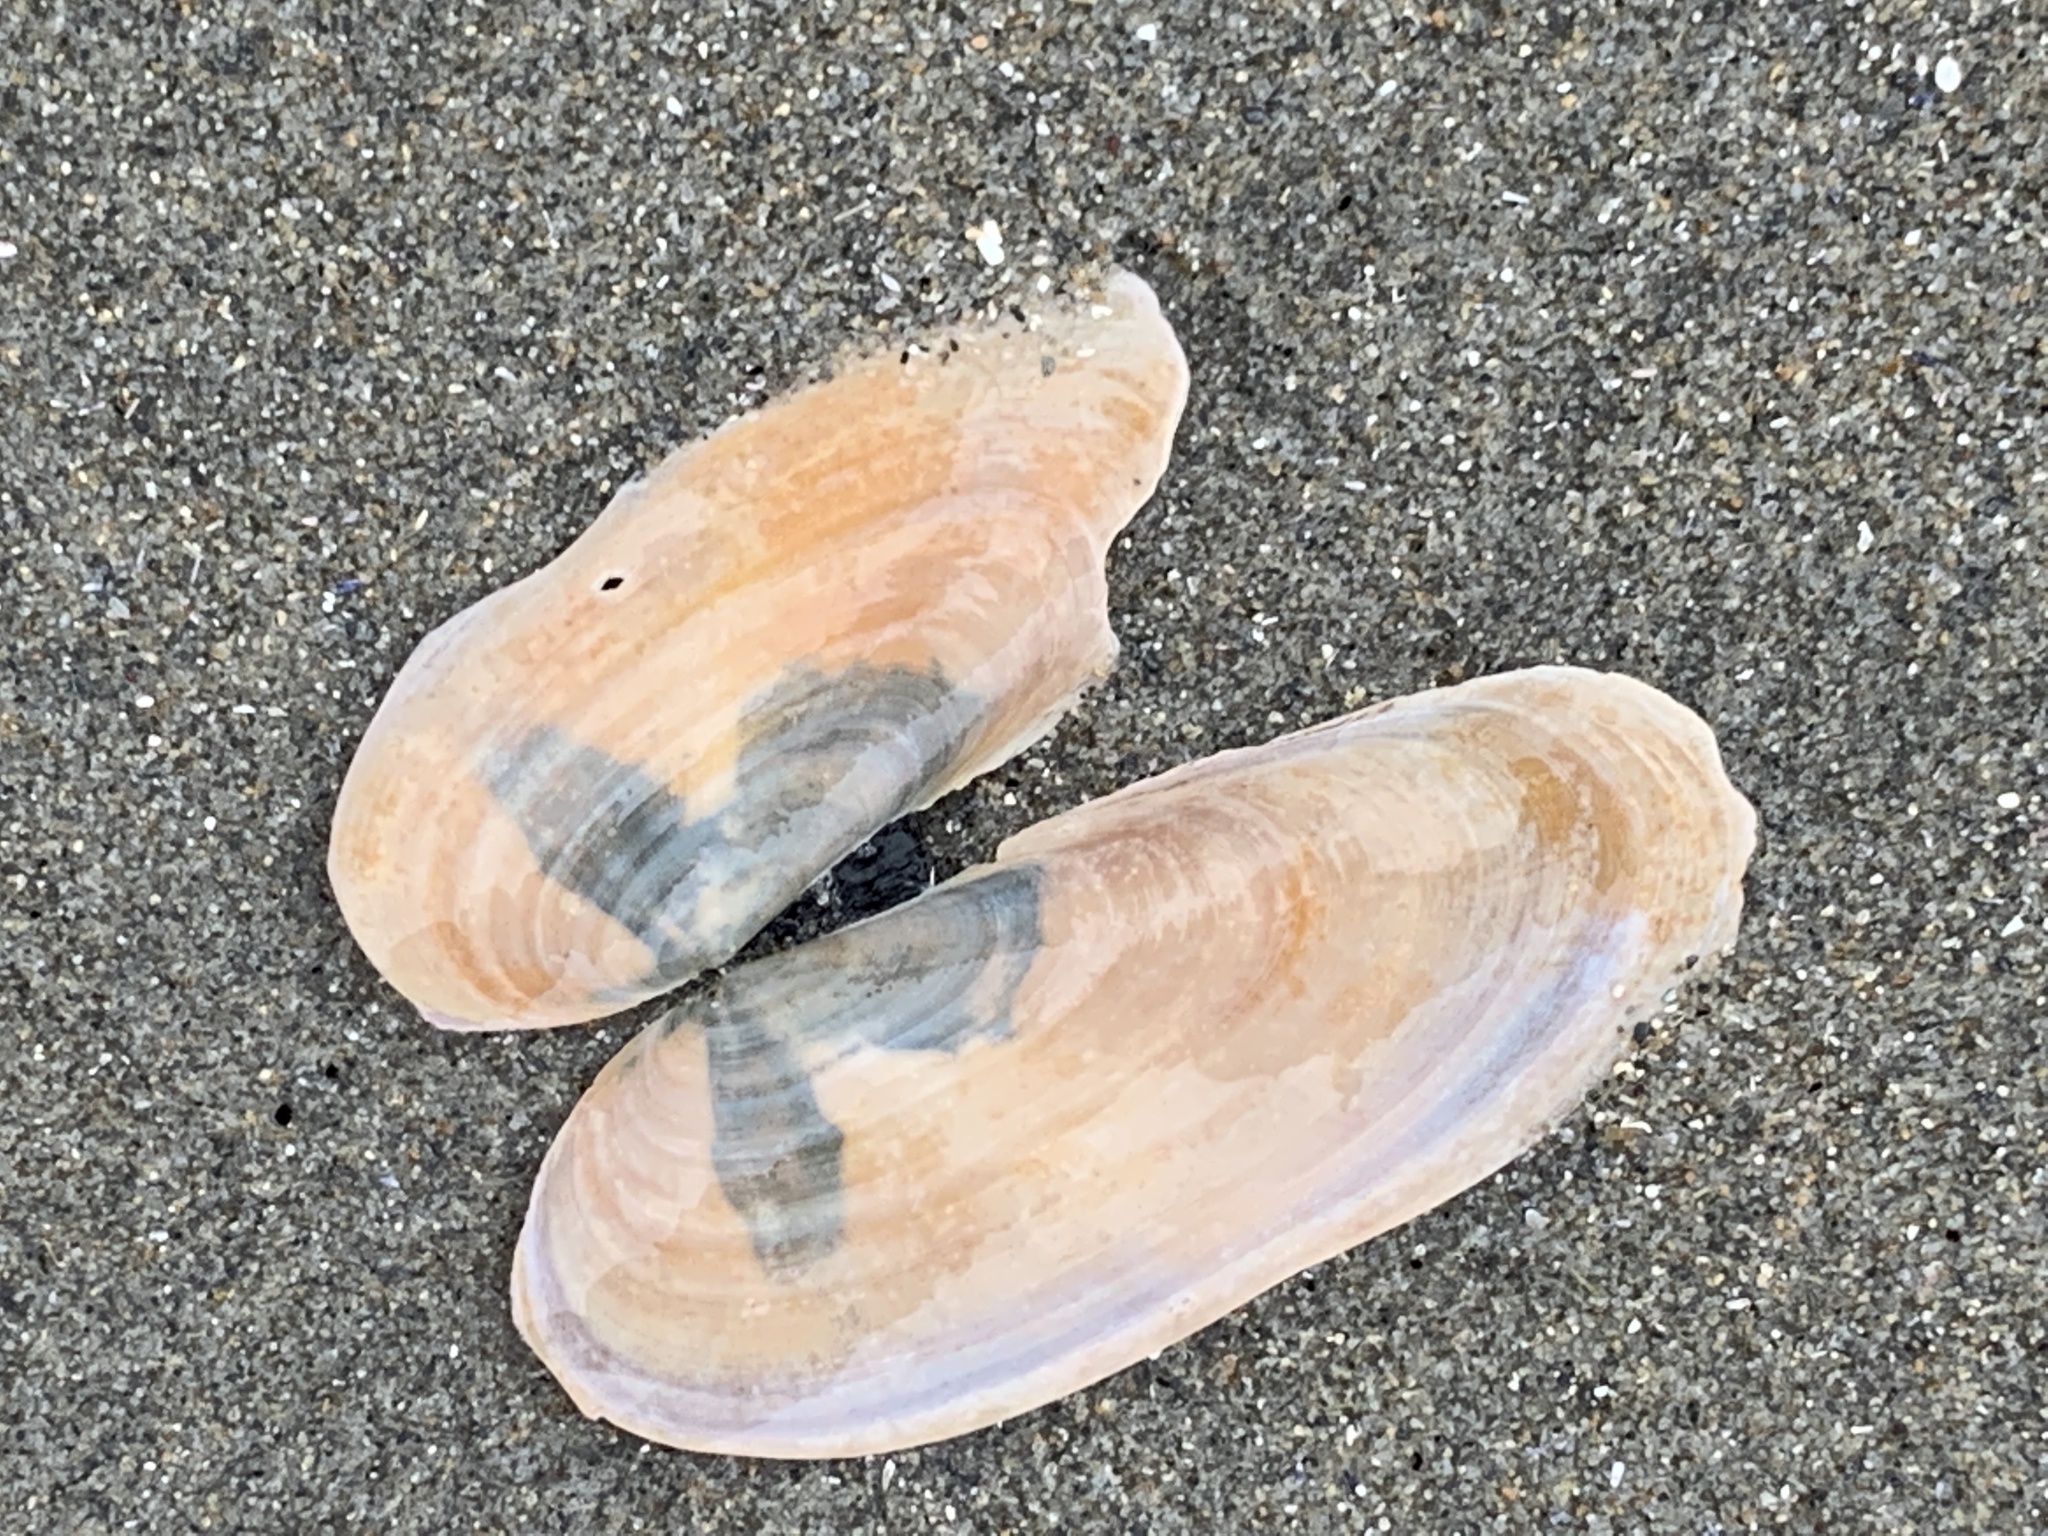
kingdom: Animalia
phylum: Mollusca
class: Bivalvia
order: Adapedonta
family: Pharidae
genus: Siliqua
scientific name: Siliqua costata
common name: Atlantic razor
